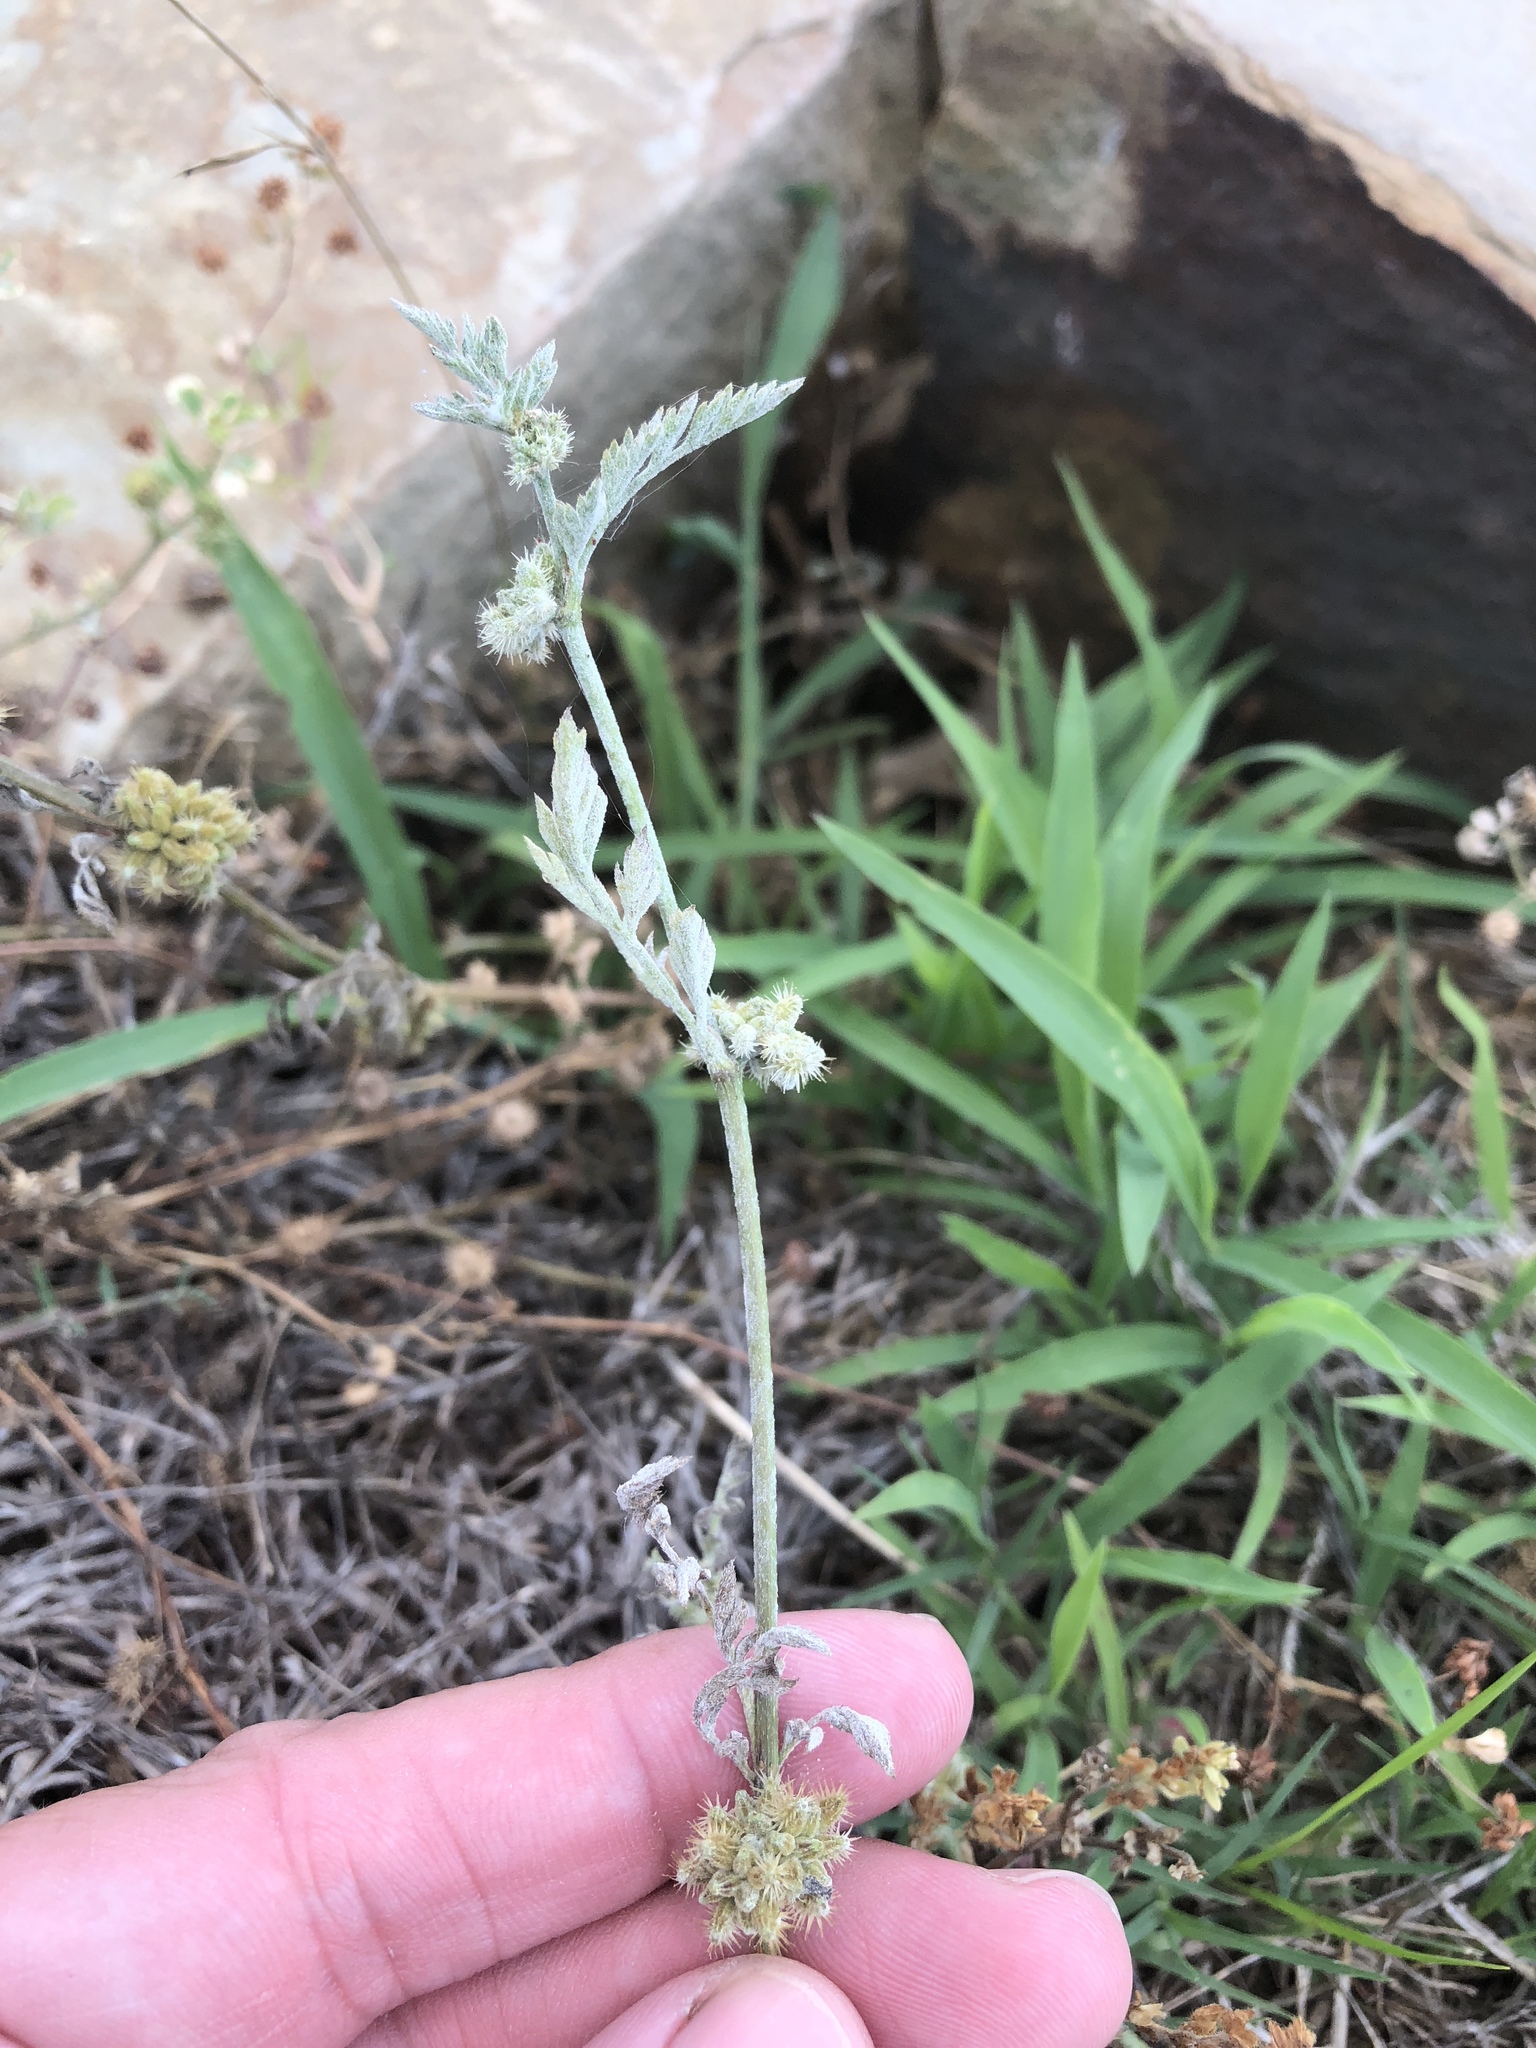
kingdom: Plantae
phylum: Tracheophyta
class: Magnoliopsida
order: Apiales
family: Apiaceae
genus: Torilis
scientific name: Torilis nodosa
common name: Knotted hedge-parsley
